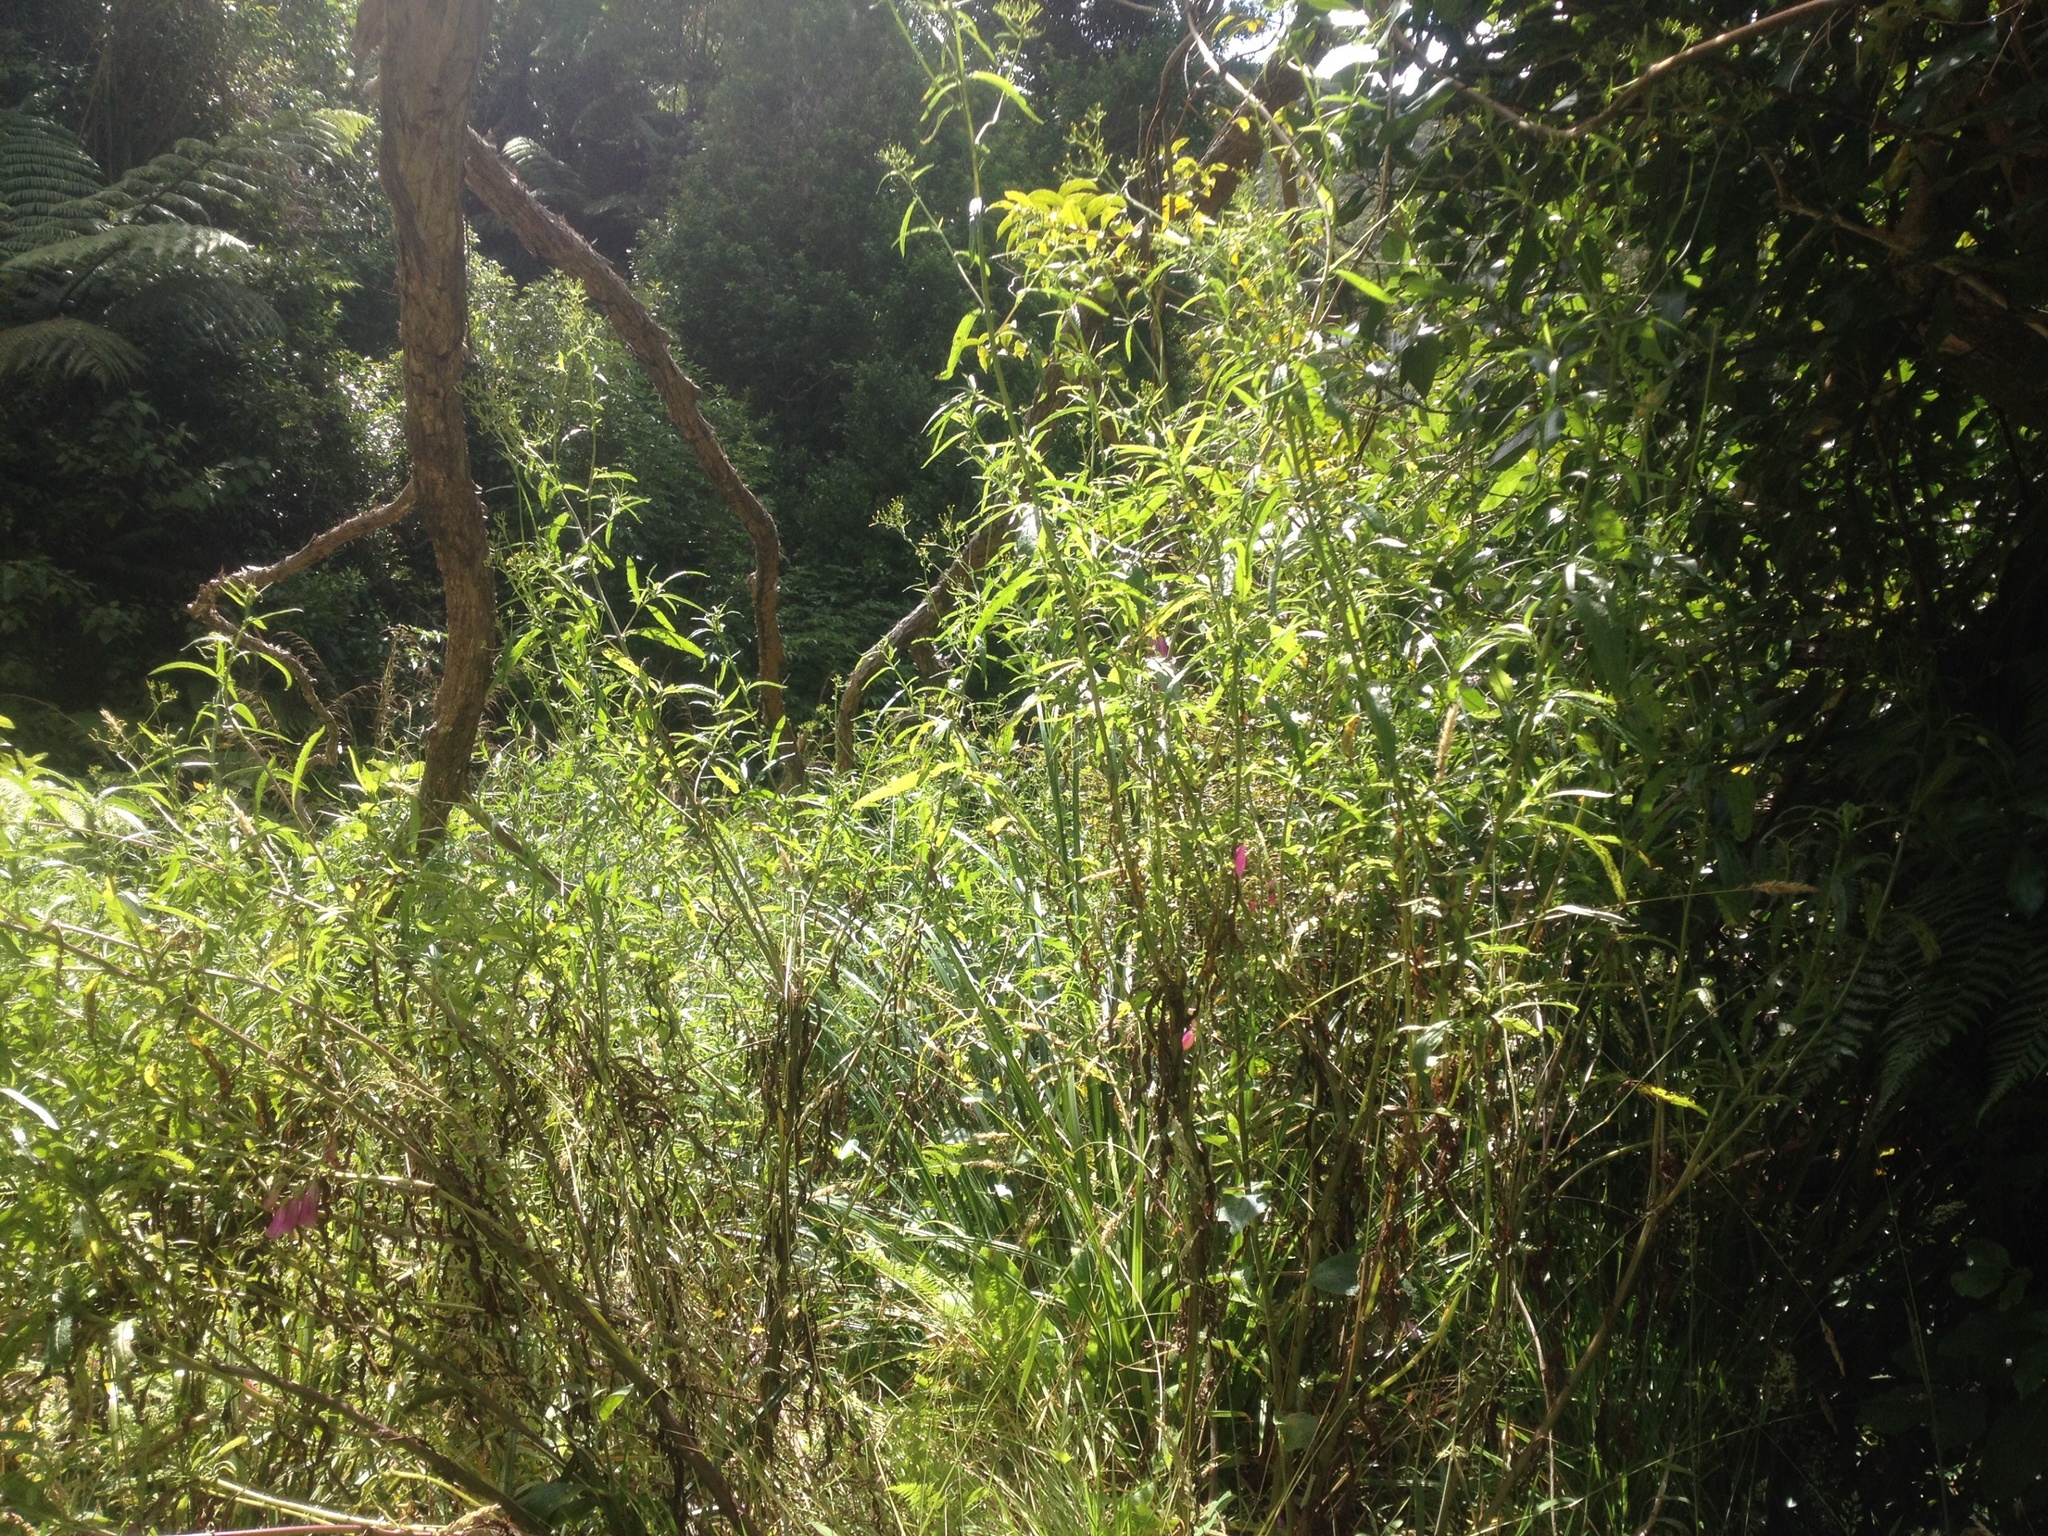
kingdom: Plantae
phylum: Tracheophyta
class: Magnoliopsida
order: Asterales
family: Asteraceae
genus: Senecio
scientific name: Senecio minimus
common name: Toothed fireweed
